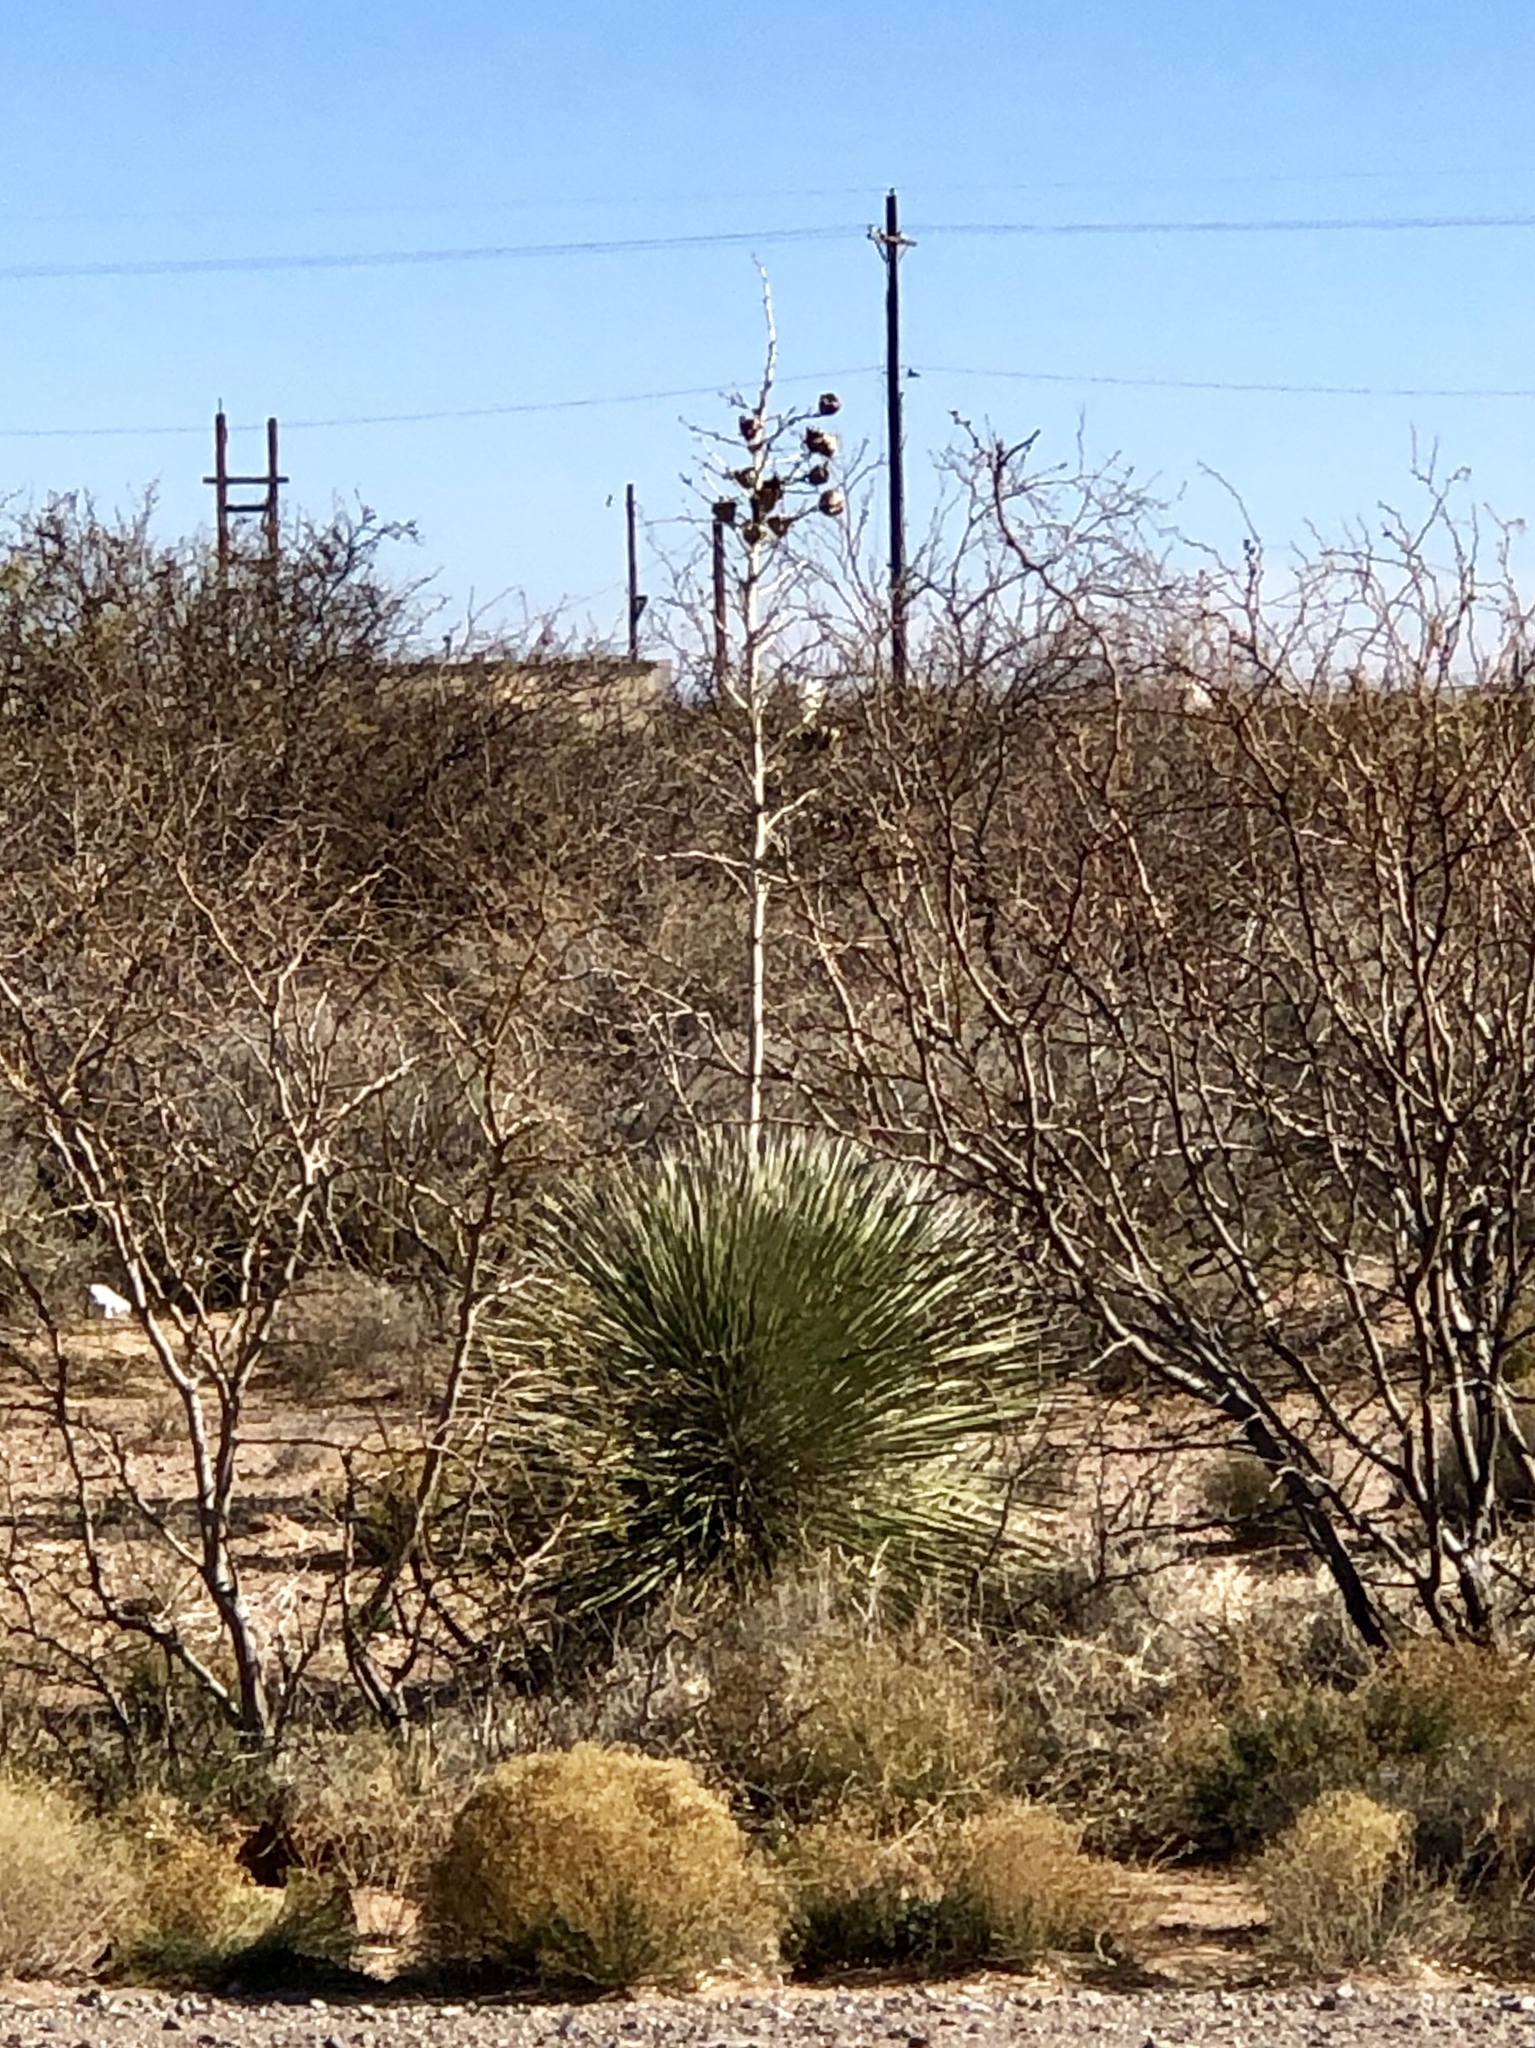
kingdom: Plantae
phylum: Tracheophyta
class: Liliopsida
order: Asparagales
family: Asparagaceae
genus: Yucca
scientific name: Yucca elata
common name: Palmella
